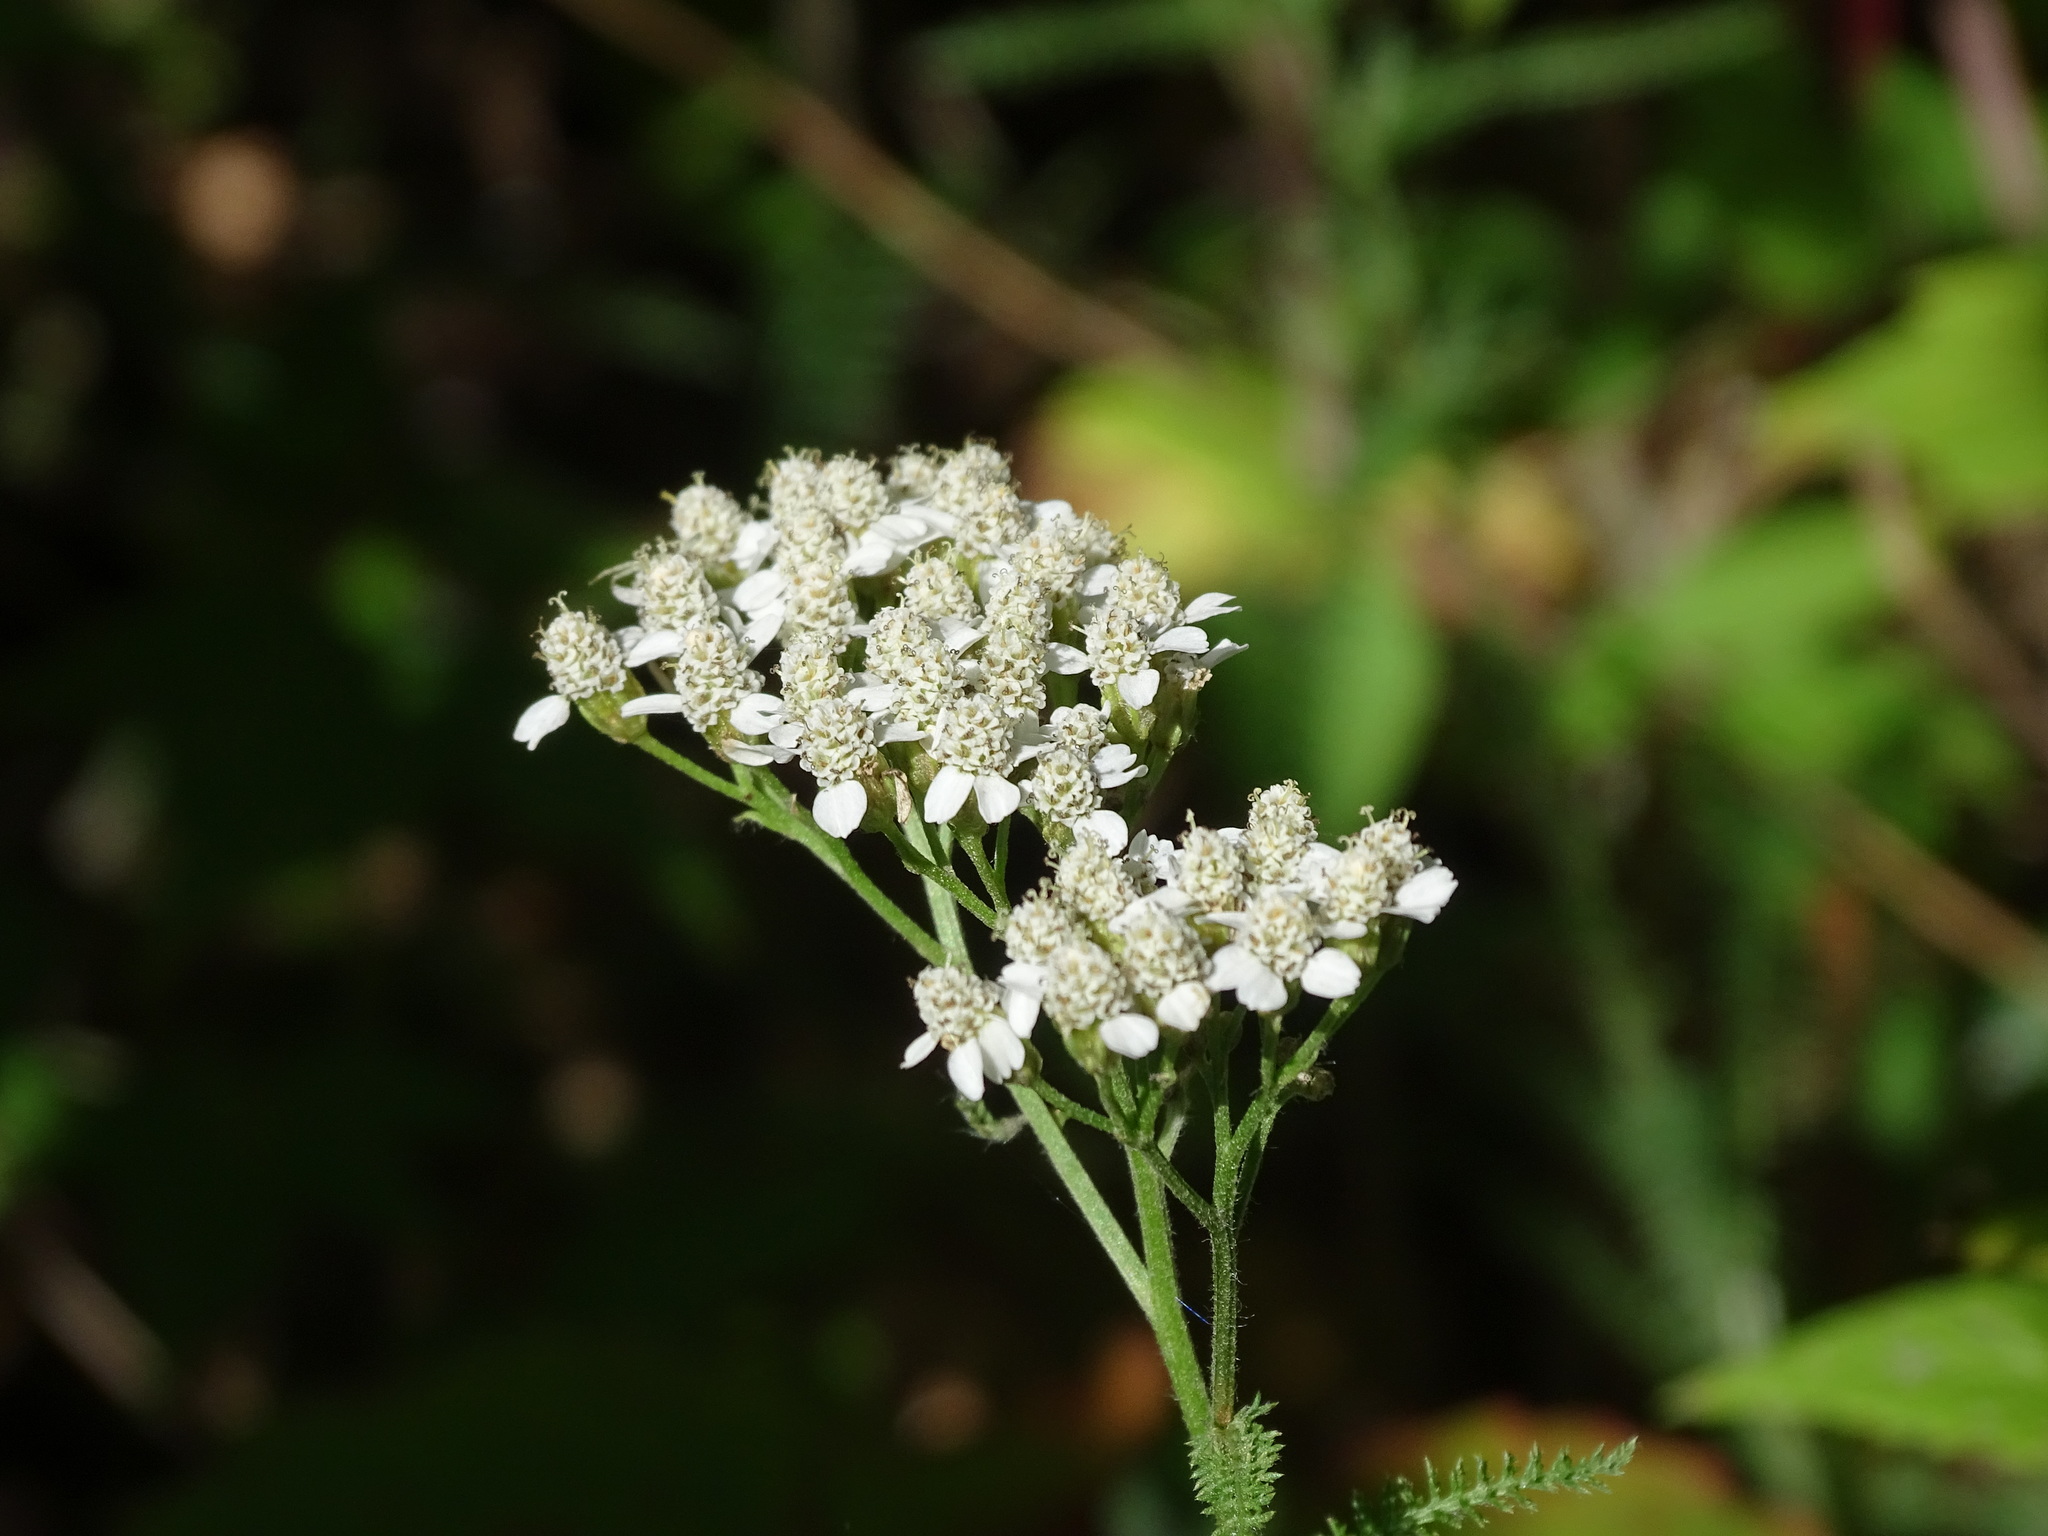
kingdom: Plantae
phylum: Tracheophyta
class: Magnoliopsida
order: Asterales
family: Asteraceae
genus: Achillea
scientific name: Achillea millefolium
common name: Yarrow
